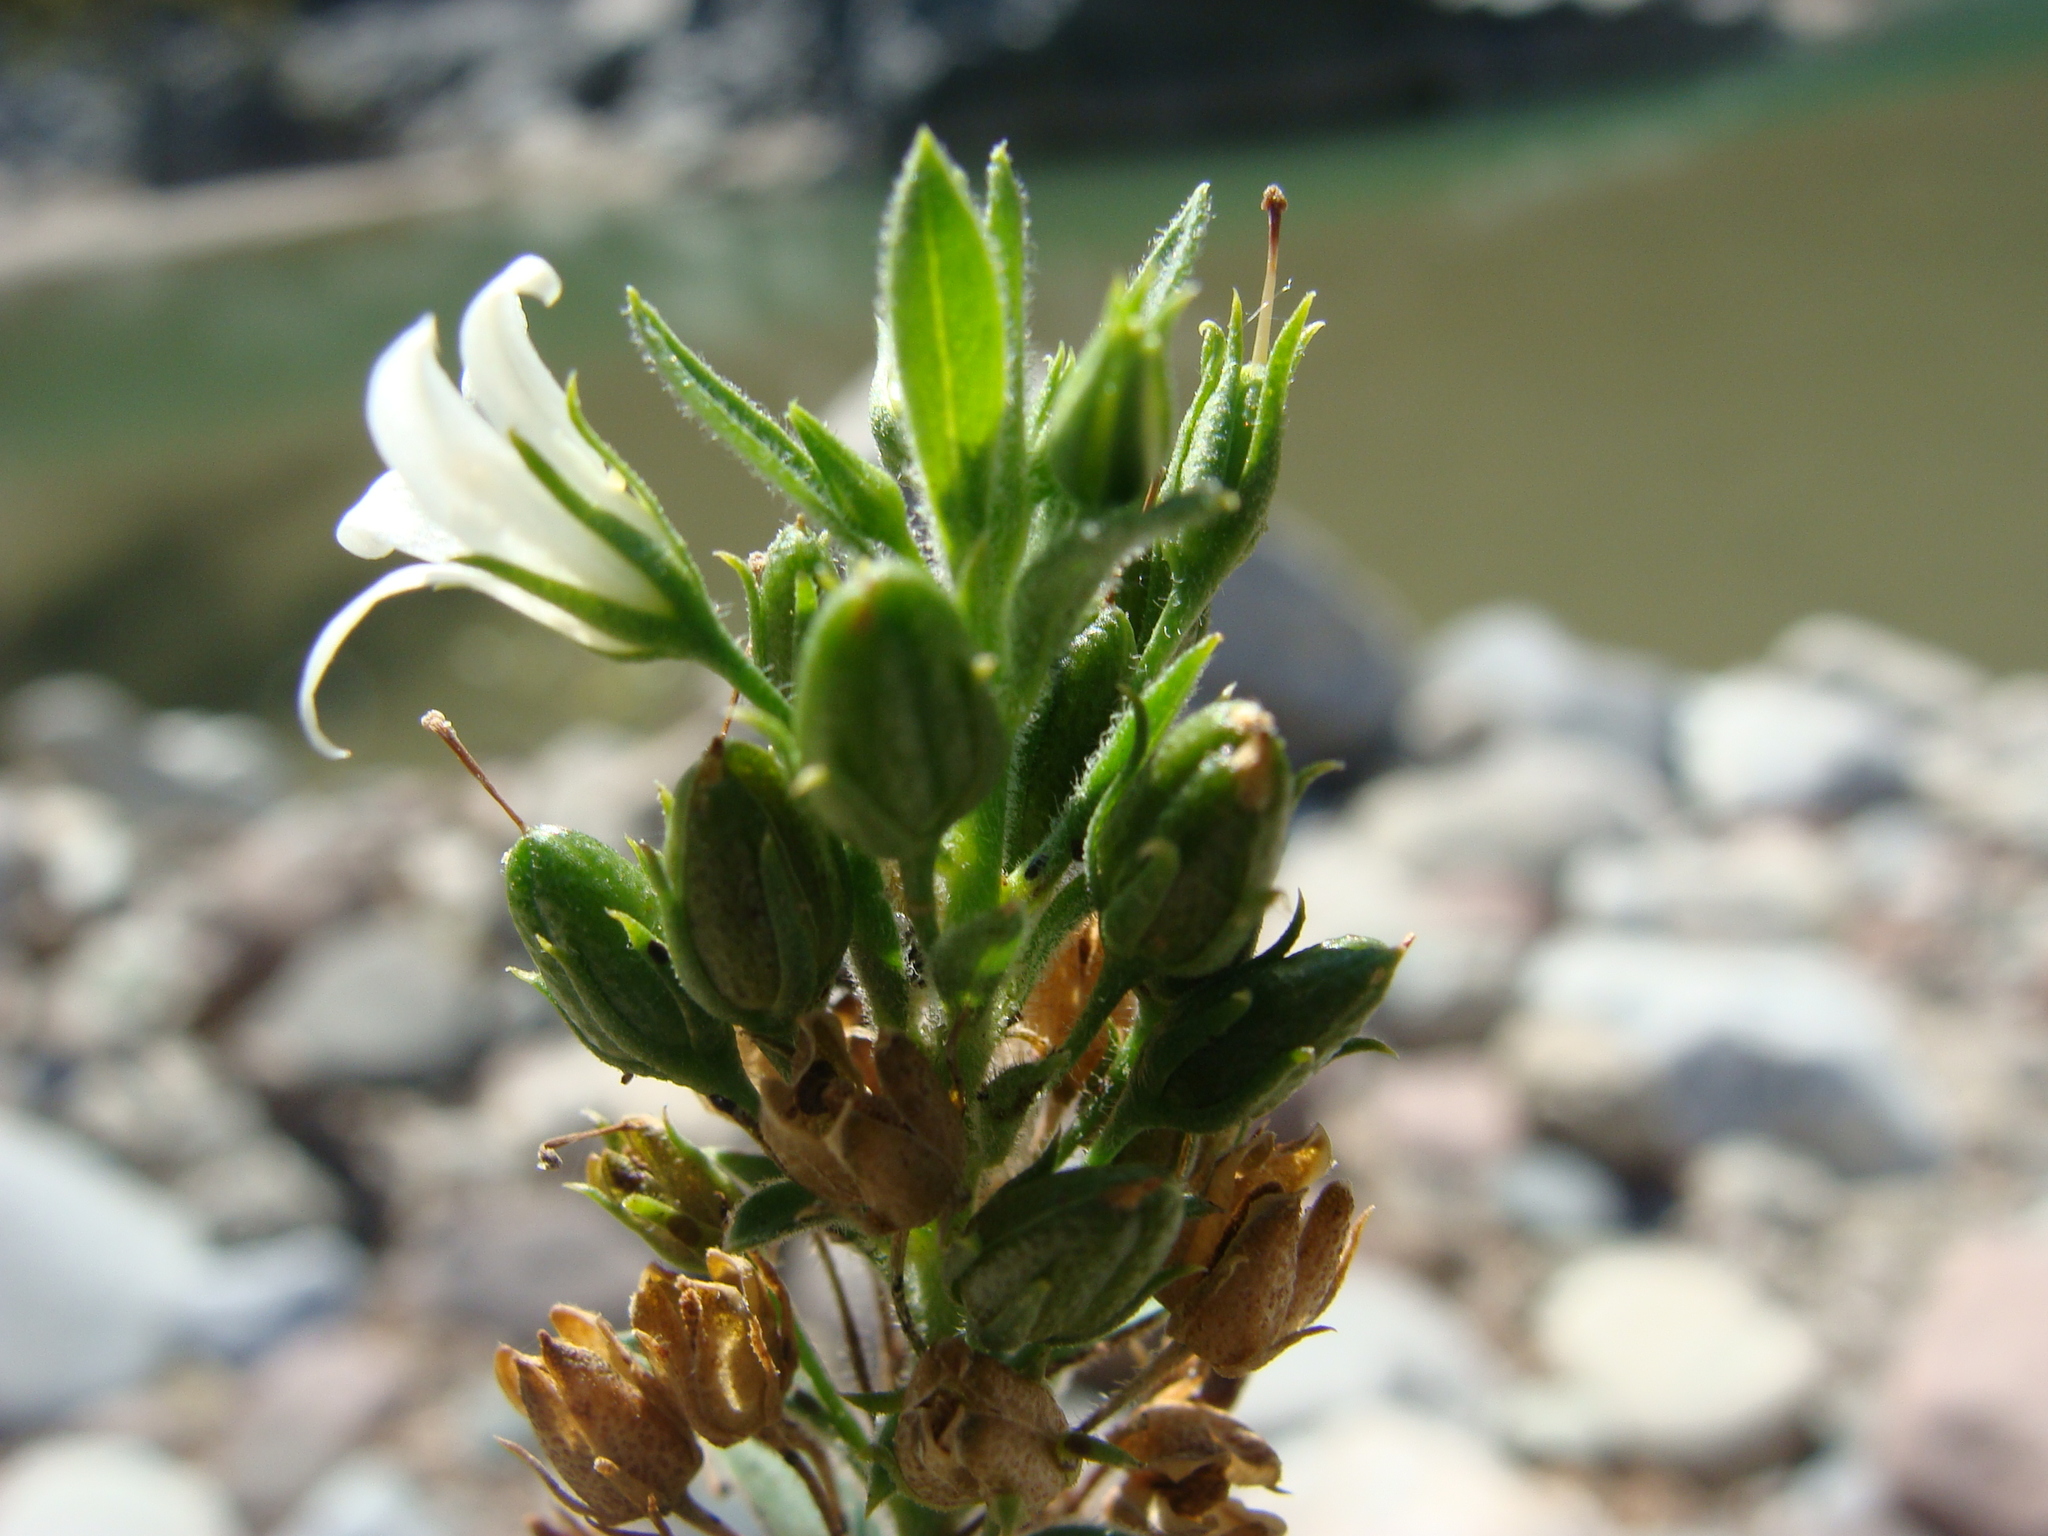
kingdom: Plantae
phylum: Tracheophyta
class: Magnoliopsida
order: Lamiales
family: Scrophulariaceae
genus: Capraria
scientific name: Capraria biflora
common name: Goatweed
